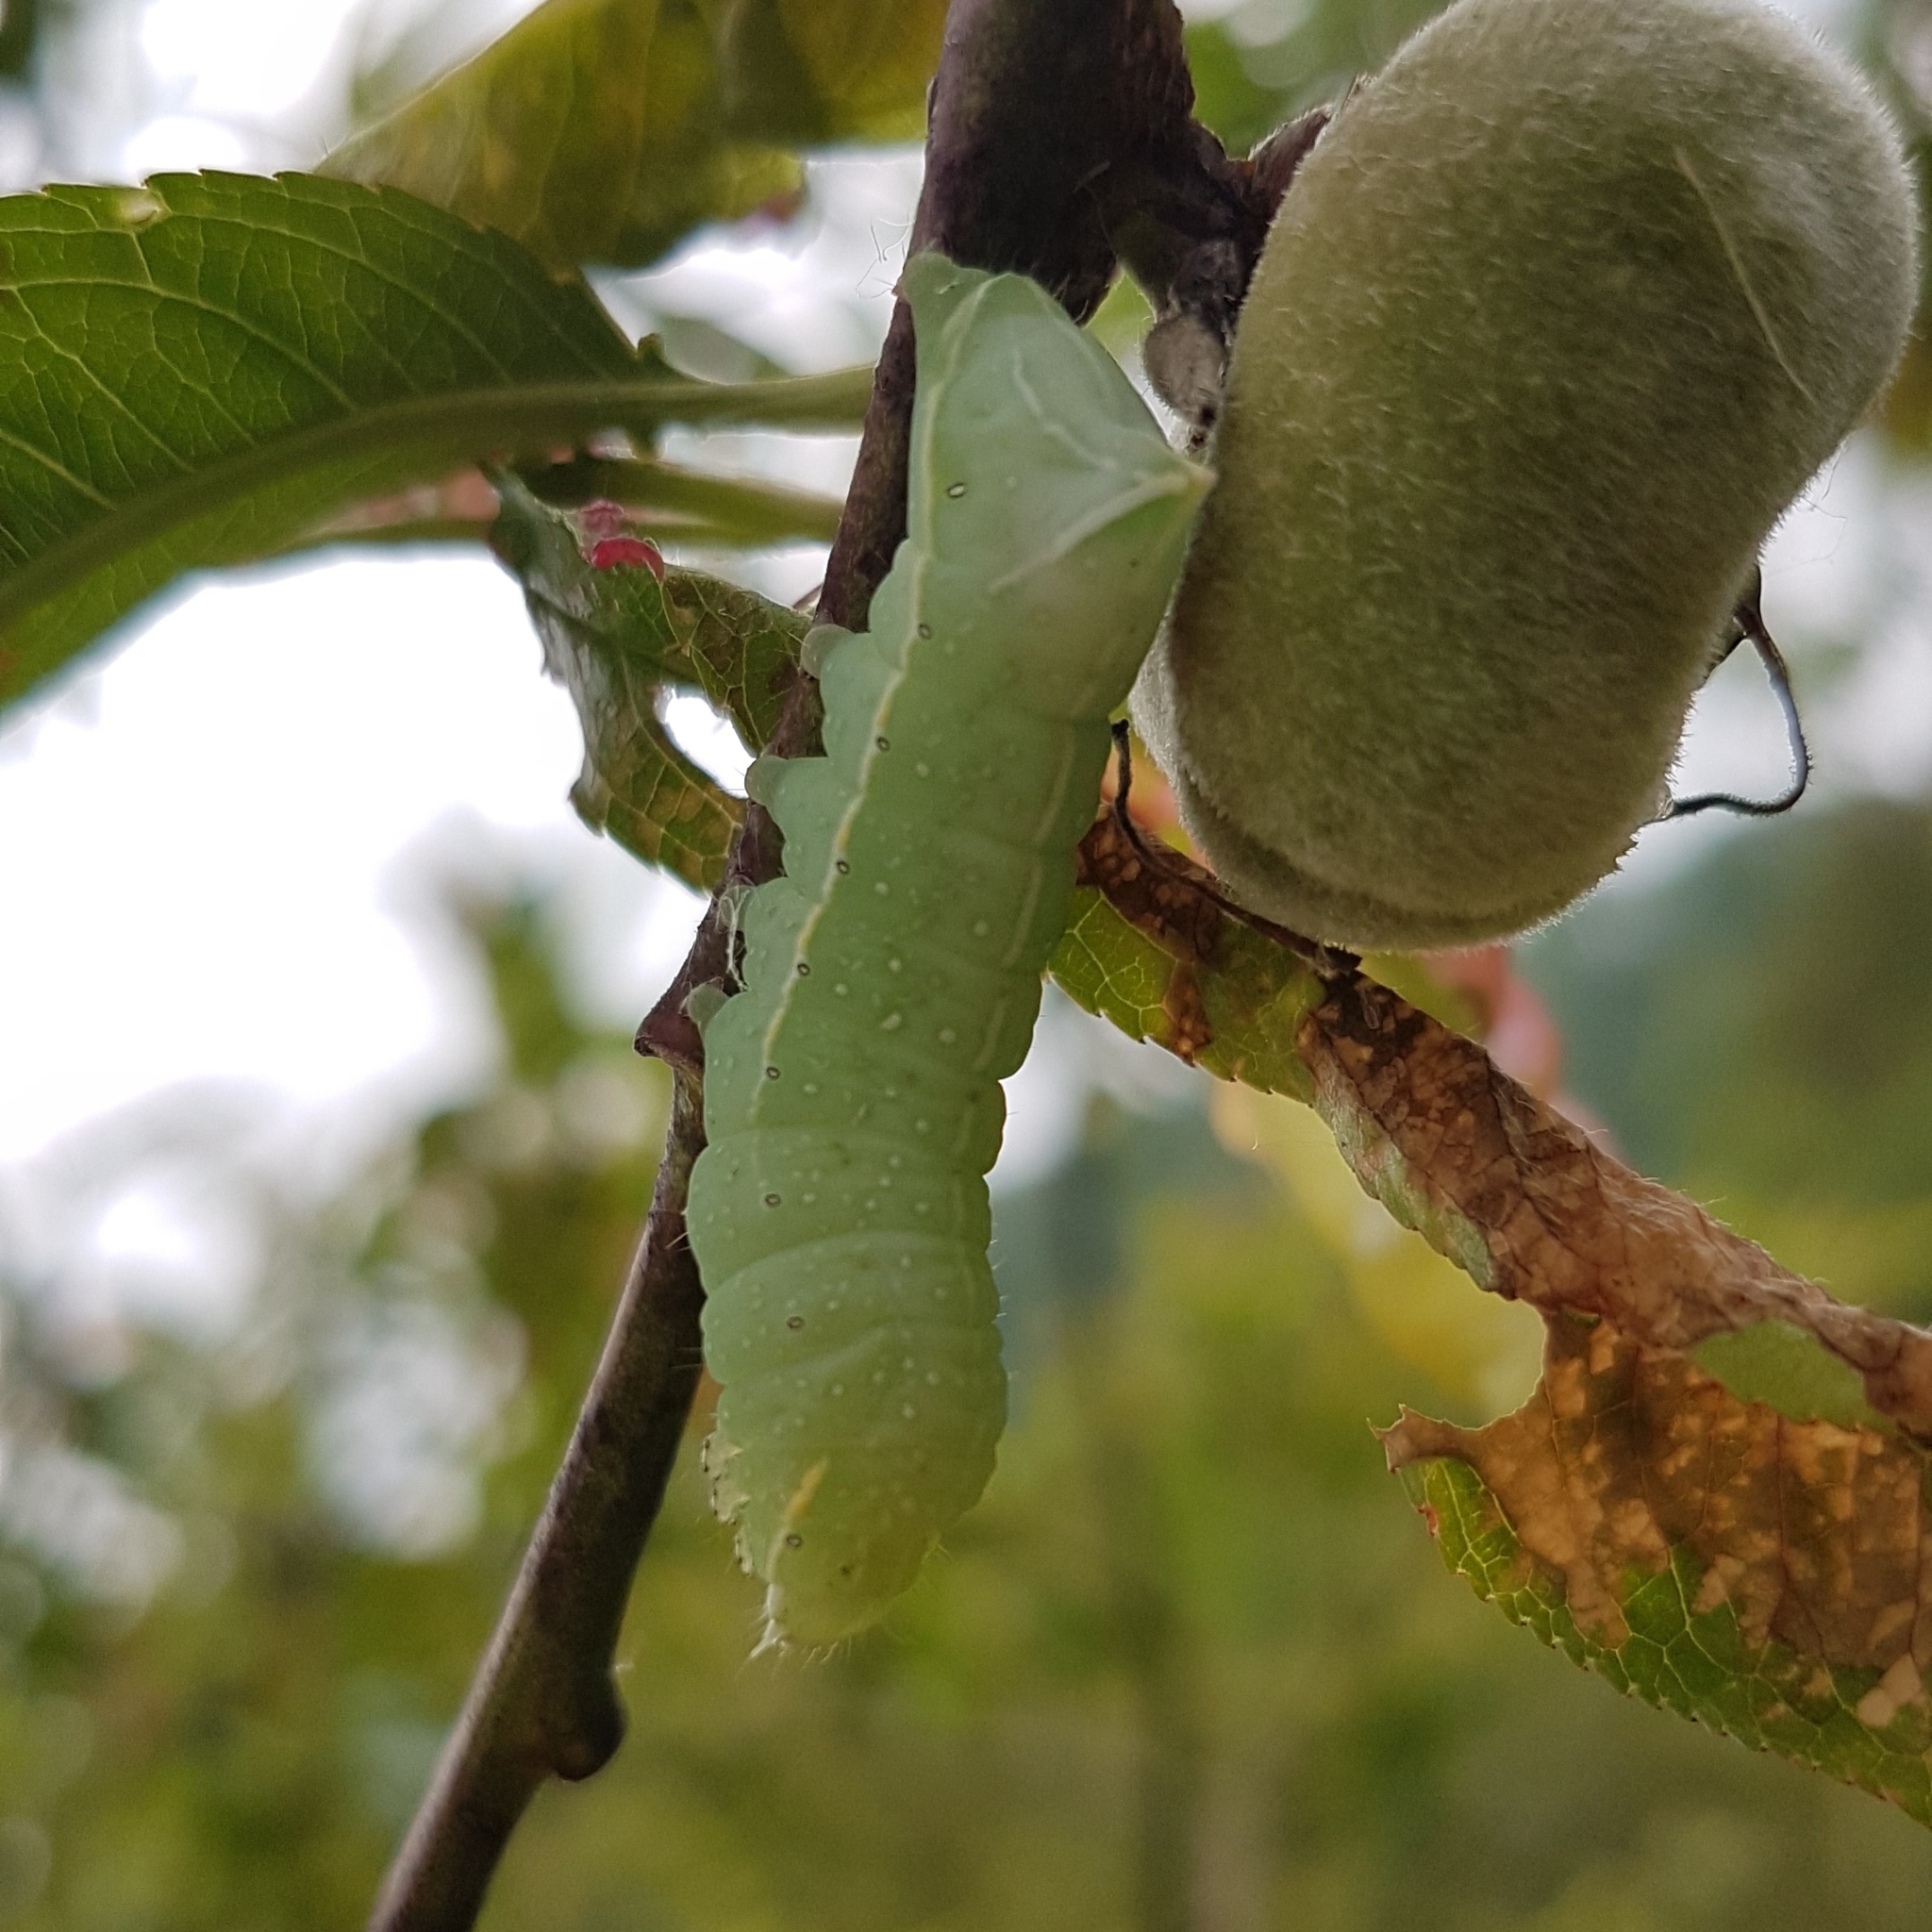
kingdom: Animalia
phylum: Arthropoda
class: Insecta
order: Lepidoptera
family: Noctuidae
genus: Amphipyra
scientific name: Amphipyra pyramidea
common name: Copper underwing
